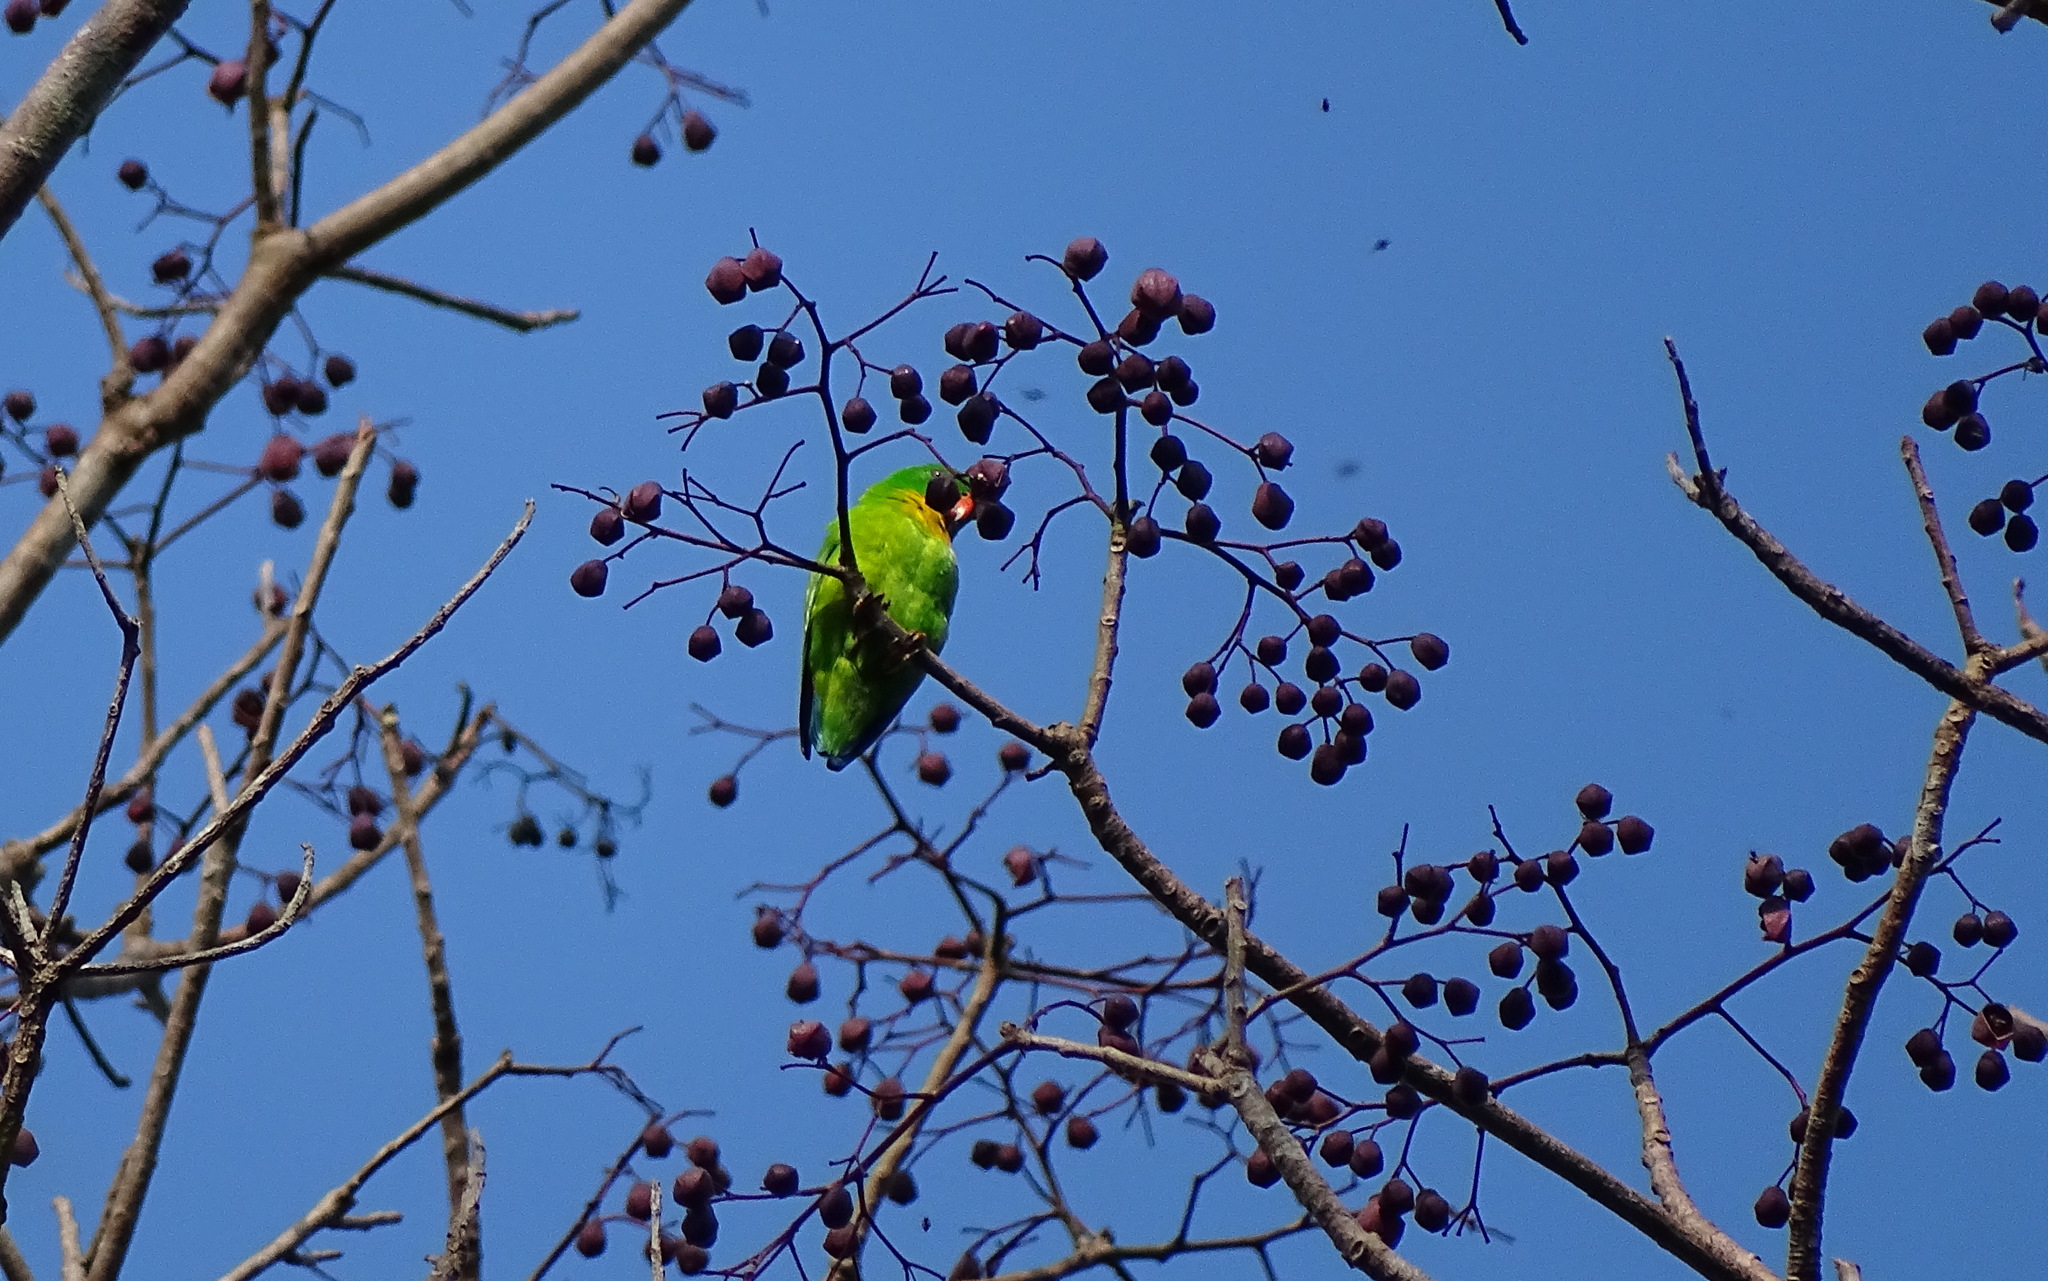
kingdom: Animalia
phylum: Chordata
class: Aves
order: Psittaciformes
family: Psittacidae
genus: Loriculus
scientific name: Loriculus pusillus
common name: Yellow-throated hanging parrot
